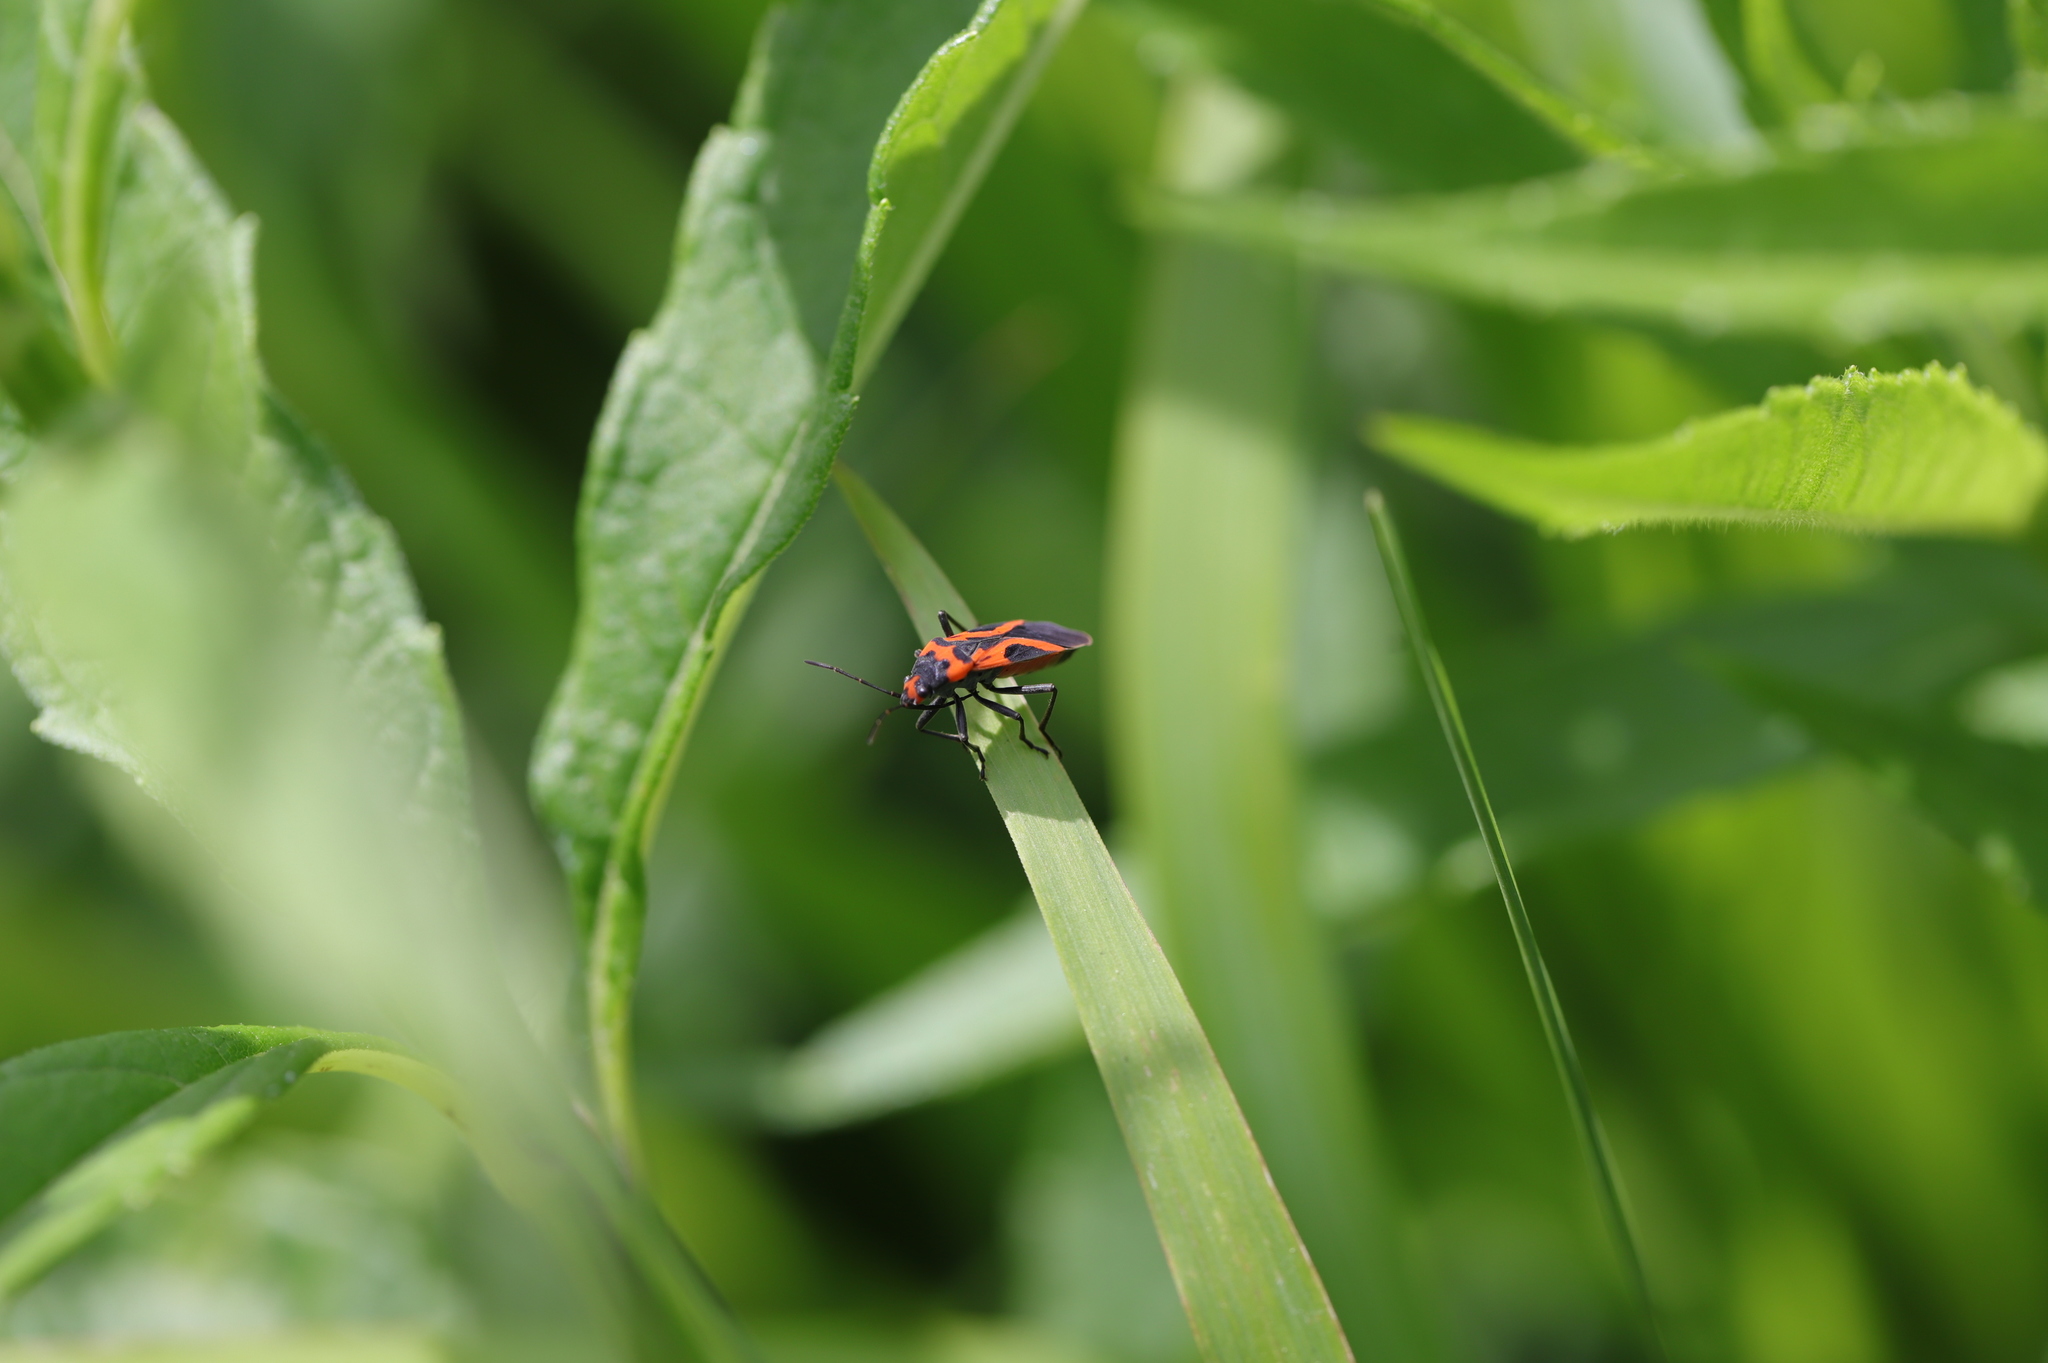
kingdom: Animalia
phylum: Arthropoda
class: Insecta
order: Hemiptera
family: Lygaeidae
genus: Lygaeus
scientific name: Lygaeus turcicus
